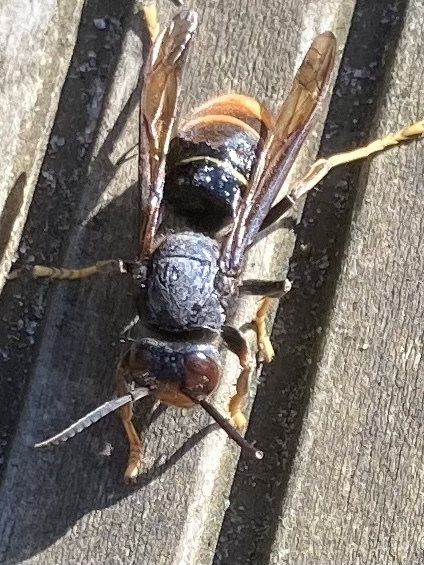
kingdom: Animalia
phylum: Arthropoda
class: Insecta
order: Hymenoptera
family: Vespidae
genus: Vespa
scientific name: Vespa velutina
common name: Asian hornet
